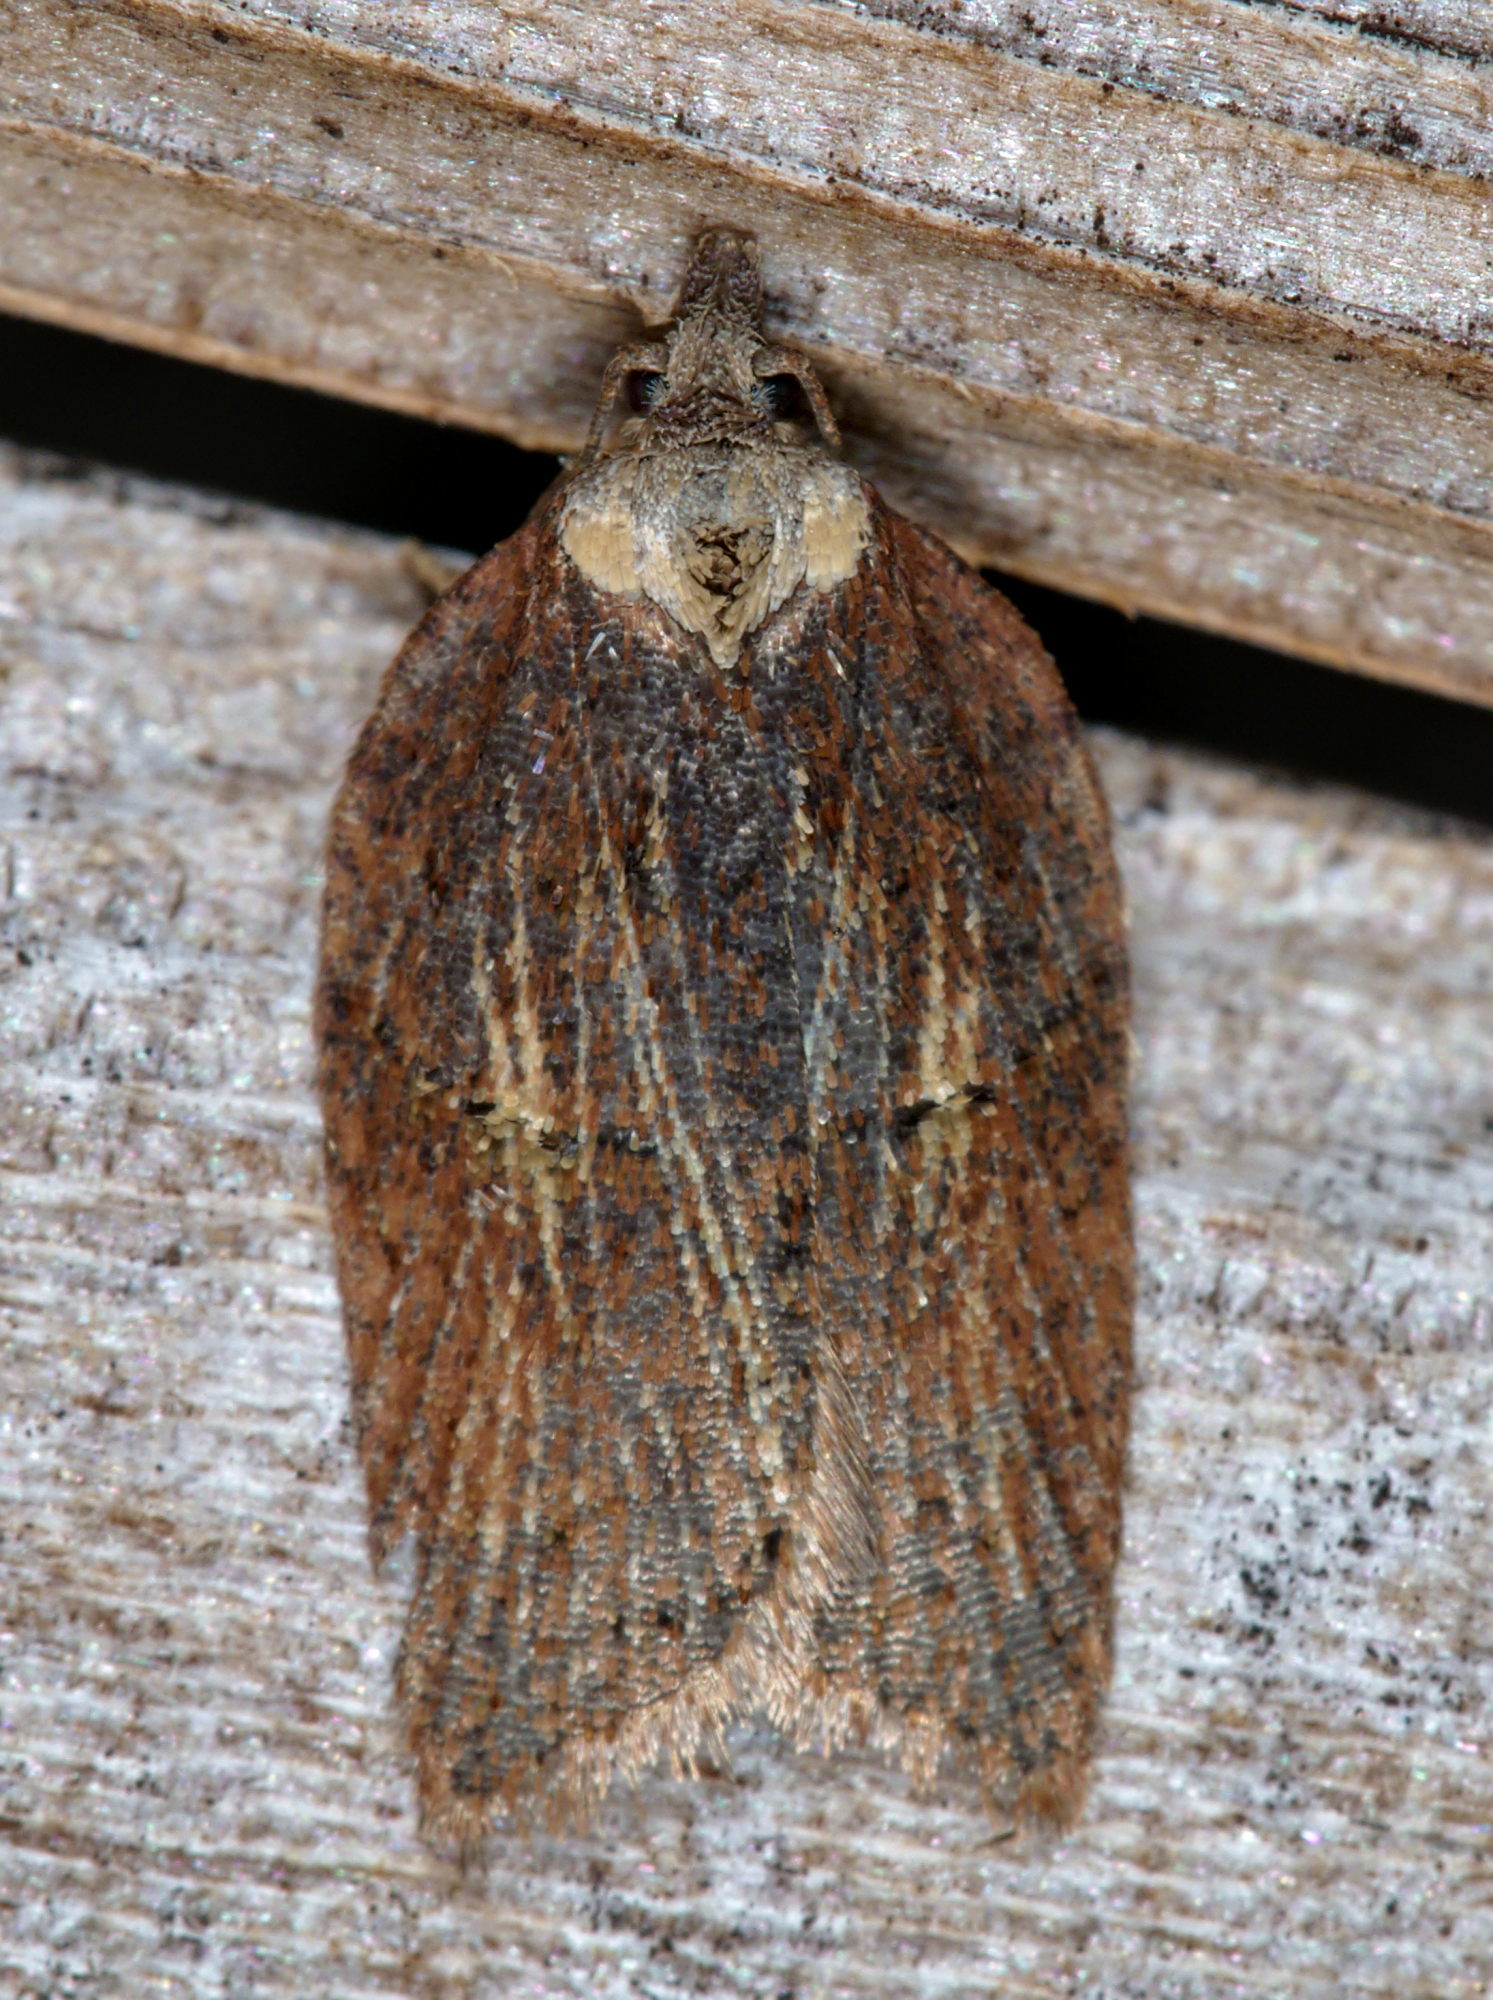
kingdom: Animalia
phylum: Arthropoda
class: Insecta
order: Lepidoptera
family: Tortricidae
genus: Acleris
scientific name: Acleris hastiana
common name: Sallow button
